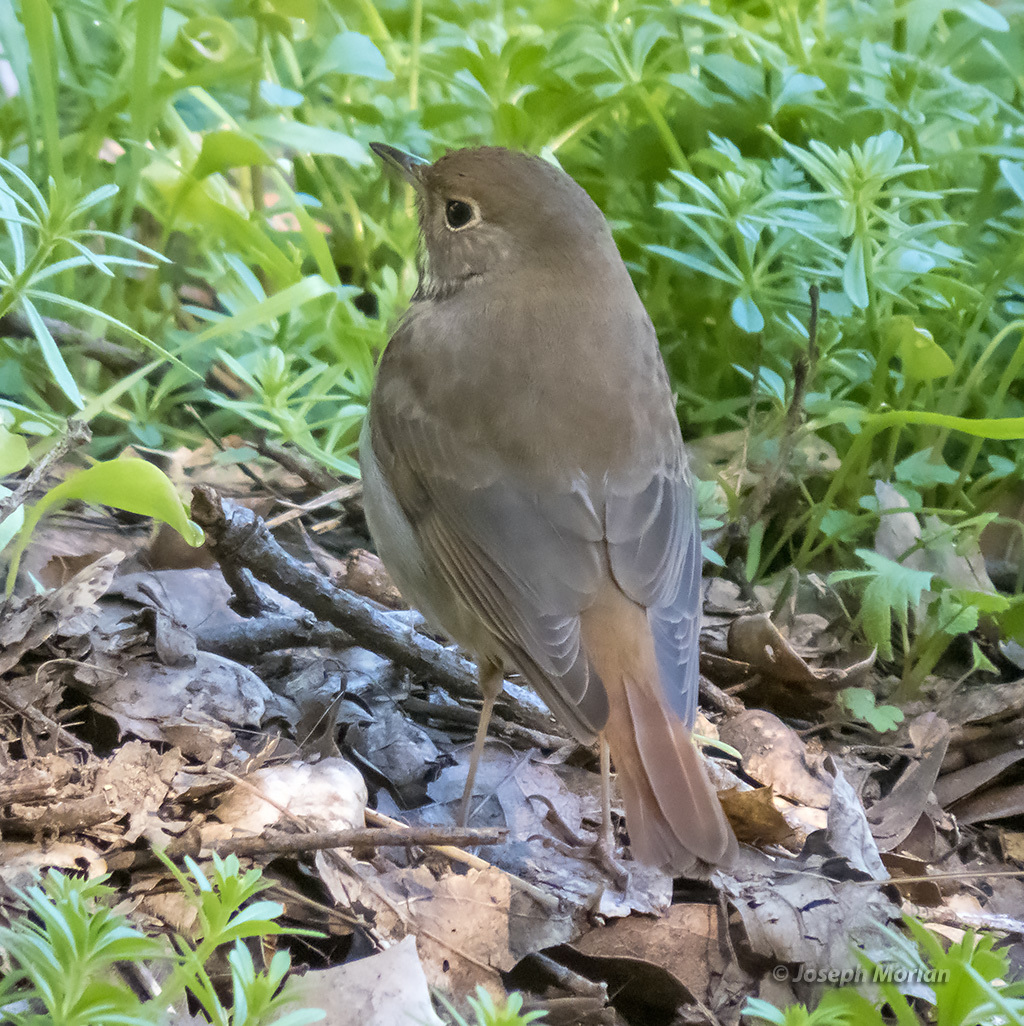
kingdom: Animalia
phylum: Chordata
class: Aves
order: Passeriformes
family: Turdidae
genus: Catharus
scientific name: Catharus guttatus
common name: Hermit thrush
